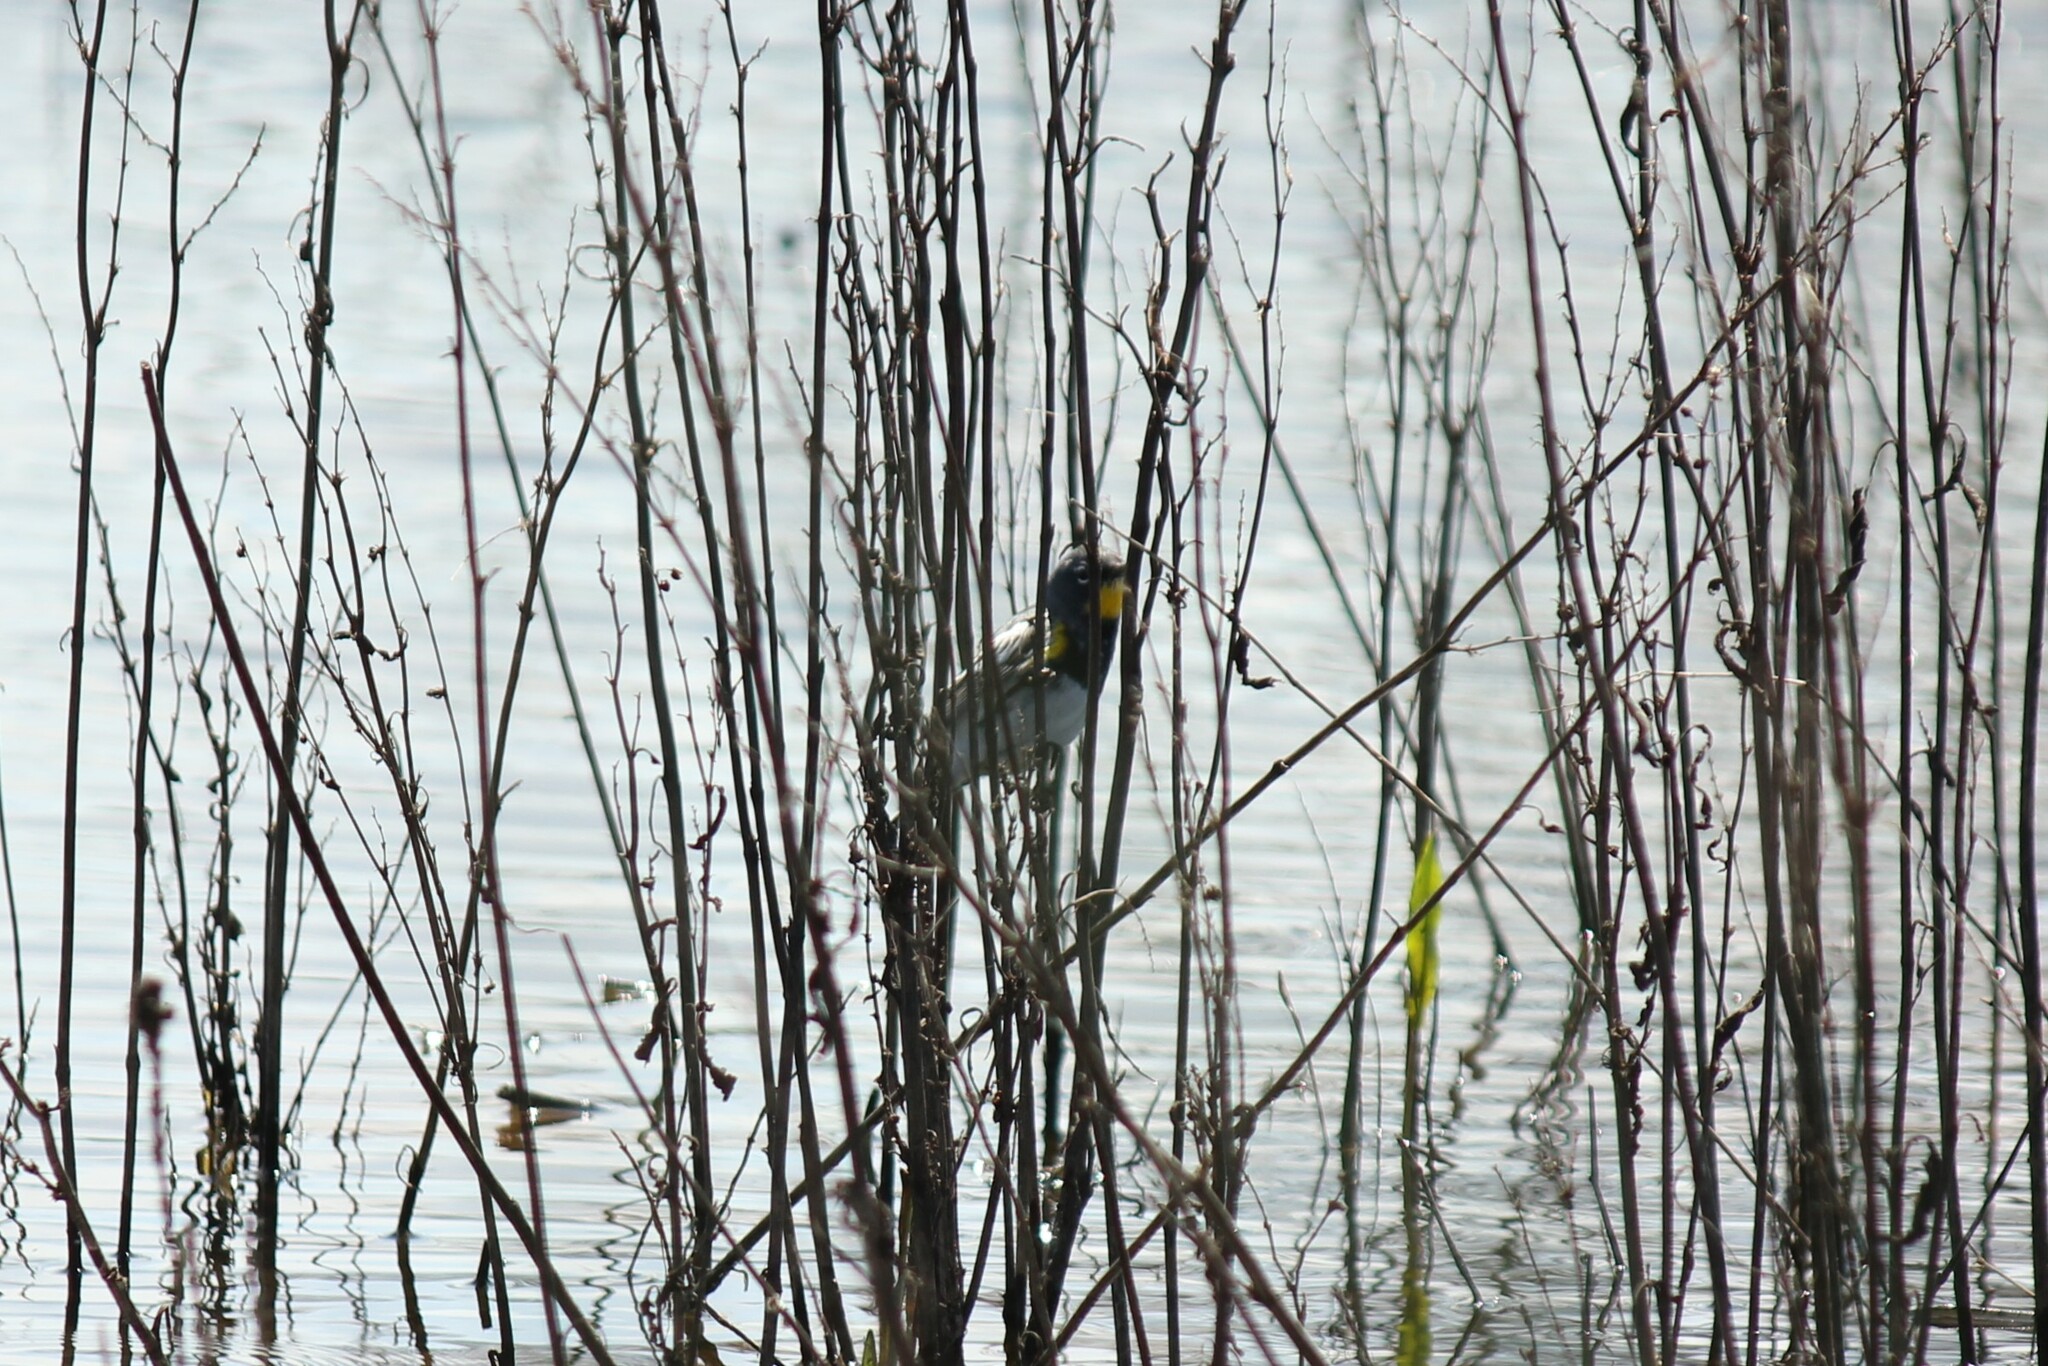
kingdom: Animalia
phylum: Chordata
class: Aves
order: Passeriformes
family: Parulidae
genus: Setophaga
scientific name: Setophaga coronata
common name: Myrtle warbler
